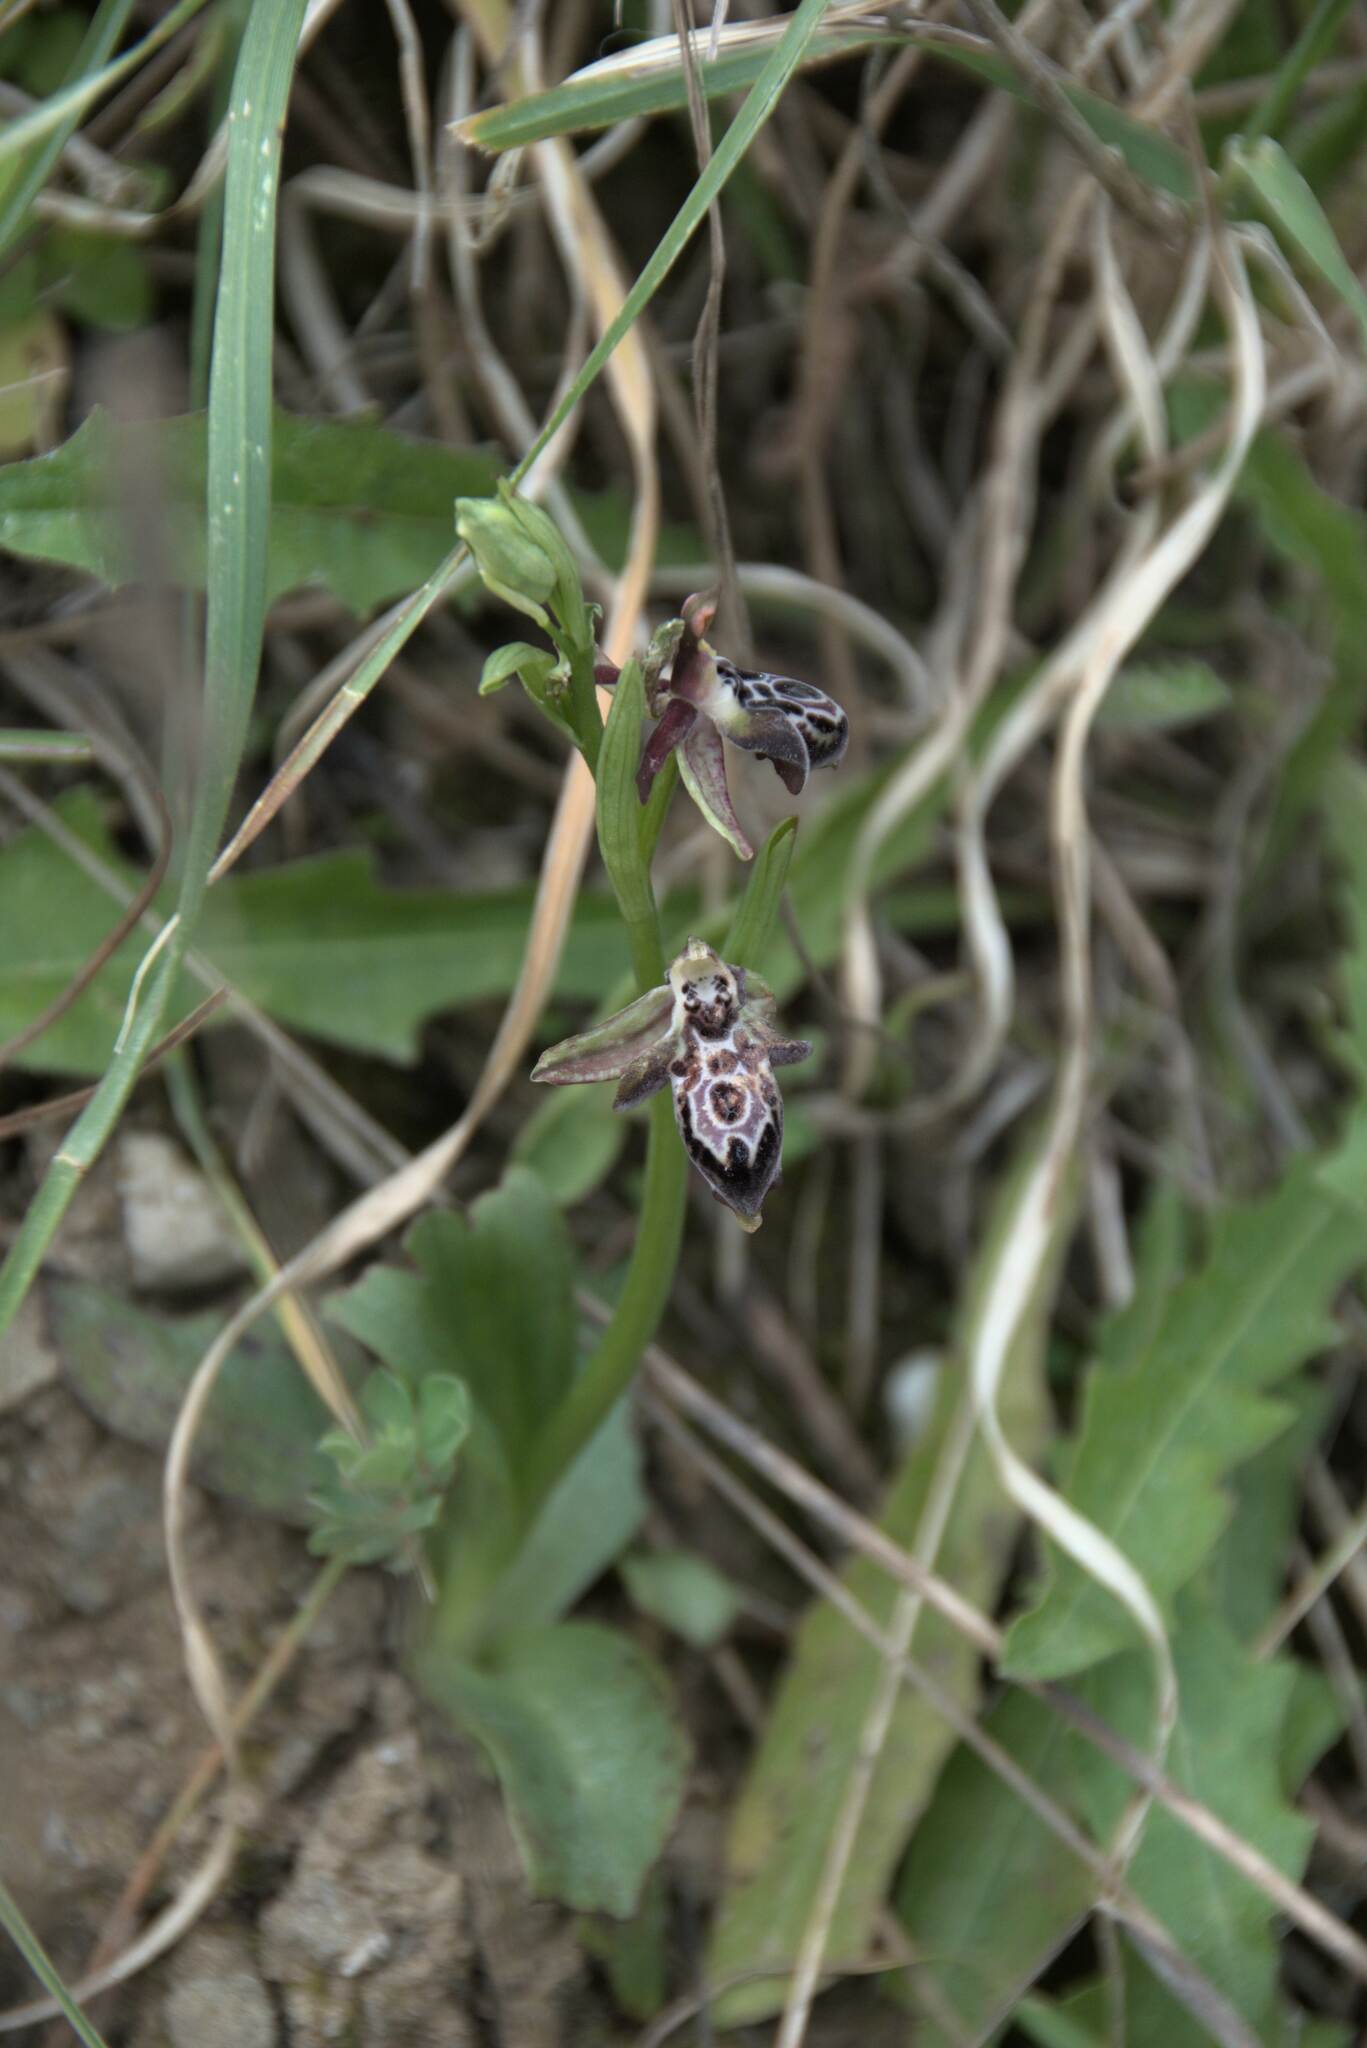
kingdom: Plantae
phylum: Tracheophyta
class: Liliopsida
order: Asparagales
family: Orchidaceae
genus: Ophrys
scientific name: Ophrys cretica
